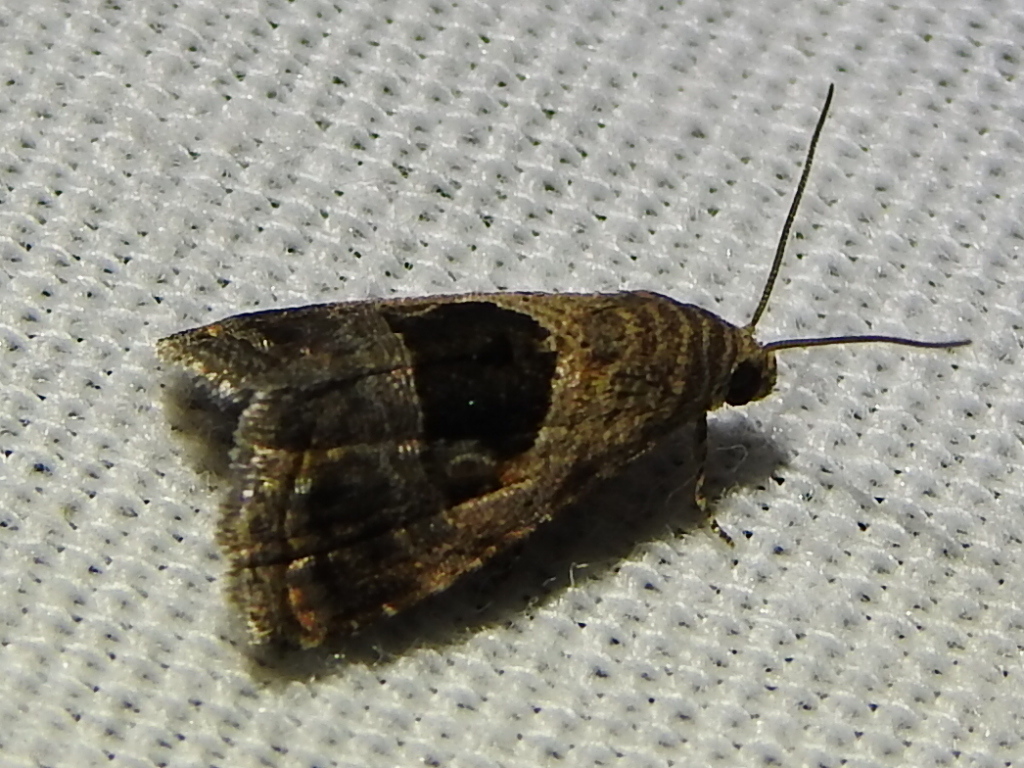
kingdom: Animalia
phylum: Arthropoda
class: Insecta
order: Lepidoptera
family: Noctuidae
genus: Tripudia
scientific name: Tripudia quadrifera
